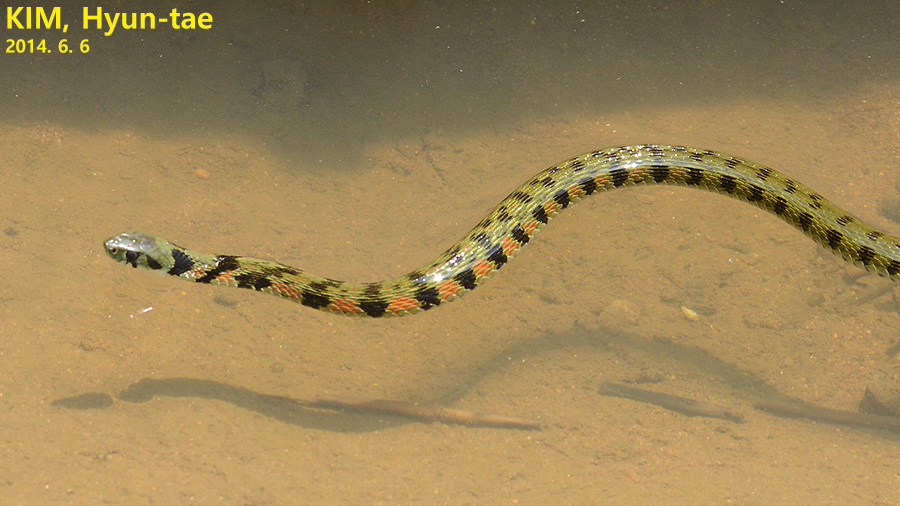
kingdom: Animalia
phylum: Chordata
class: Squamata
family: Colubridae
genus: Rhabdophis
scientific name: Rhabdophis tigrinus
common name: Tiger keelback
